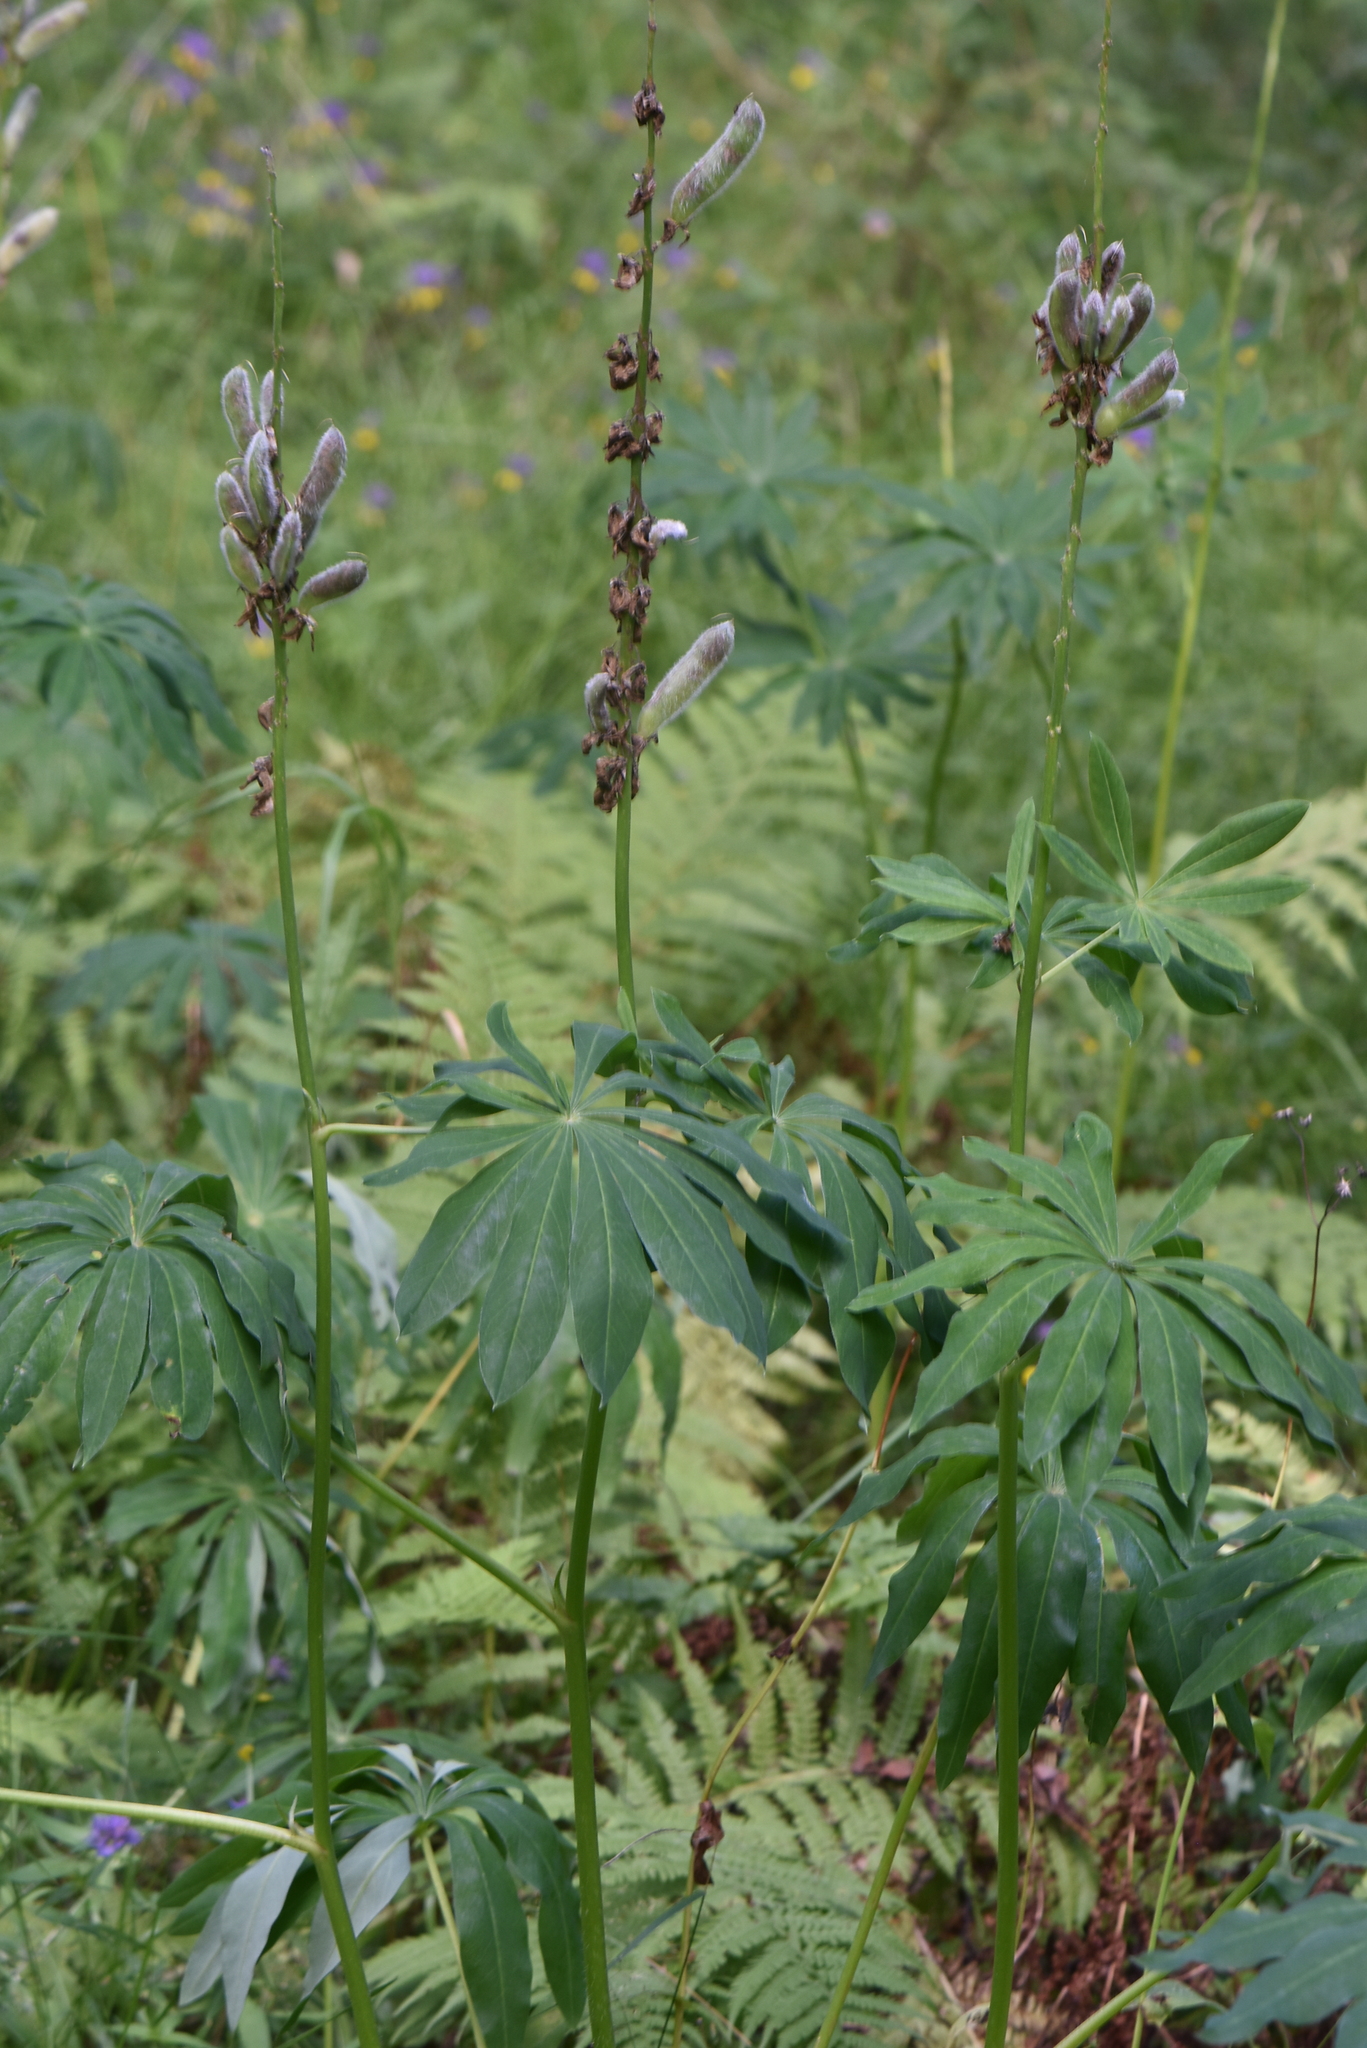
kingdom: Plantae
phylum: Tracheophyta
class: Magnoliopsida
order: Fabales
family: Fabaceae
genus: Lupinus
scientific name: Lupinus polyphyllus
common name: Garden lupin
